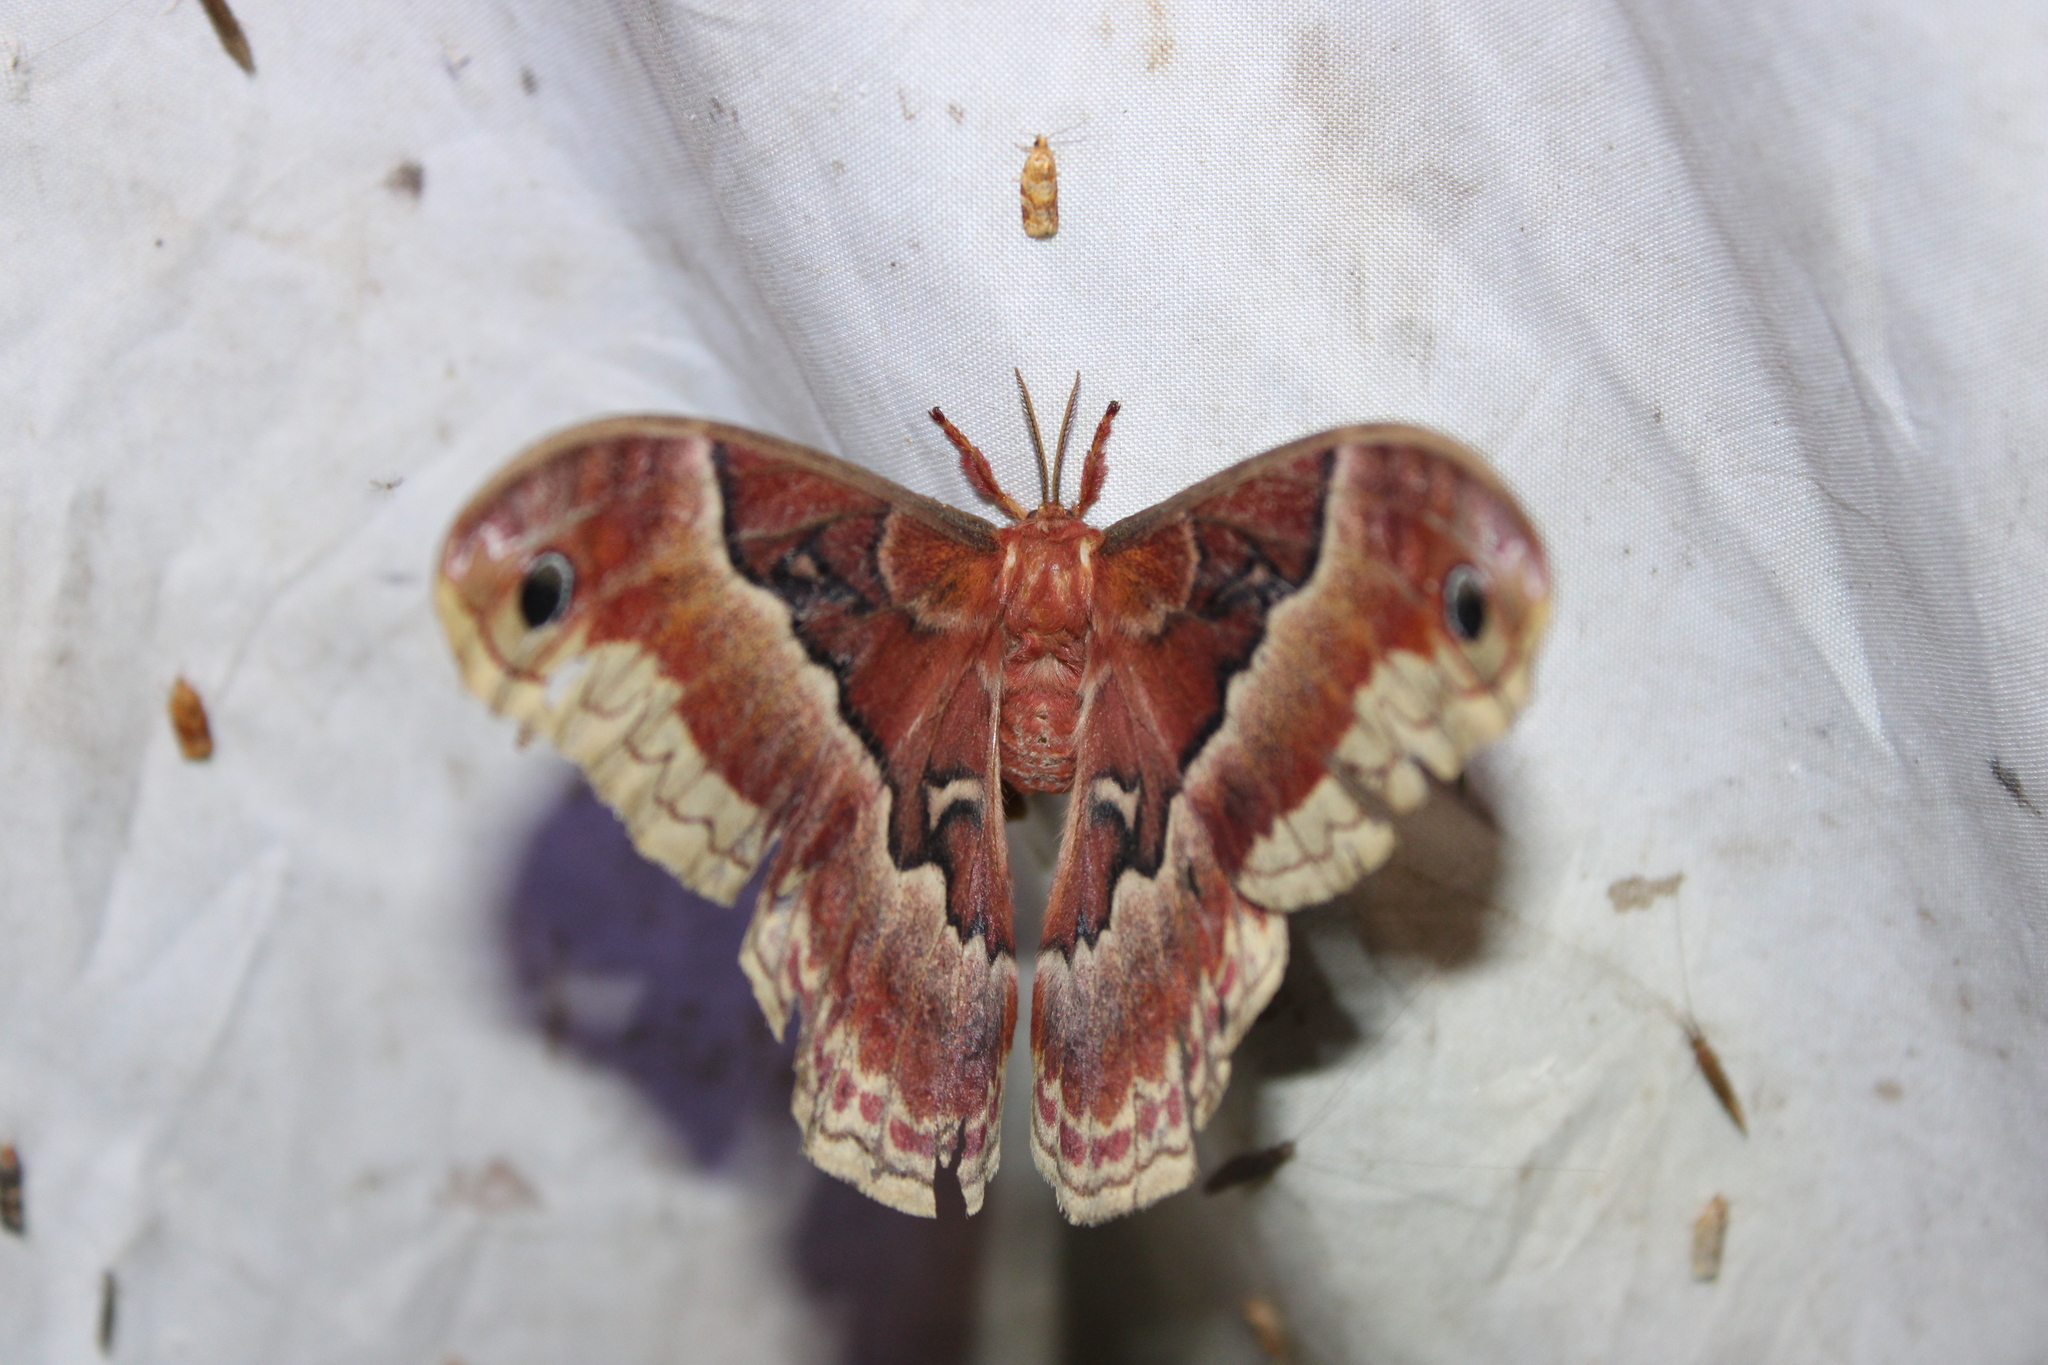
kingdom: Animalia
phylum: Arthropoda
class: Insecta
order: Lepidoptera
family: Saturniidae
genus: Callosamia
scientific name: Callosamia promethea
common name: Promethea silkmoth
